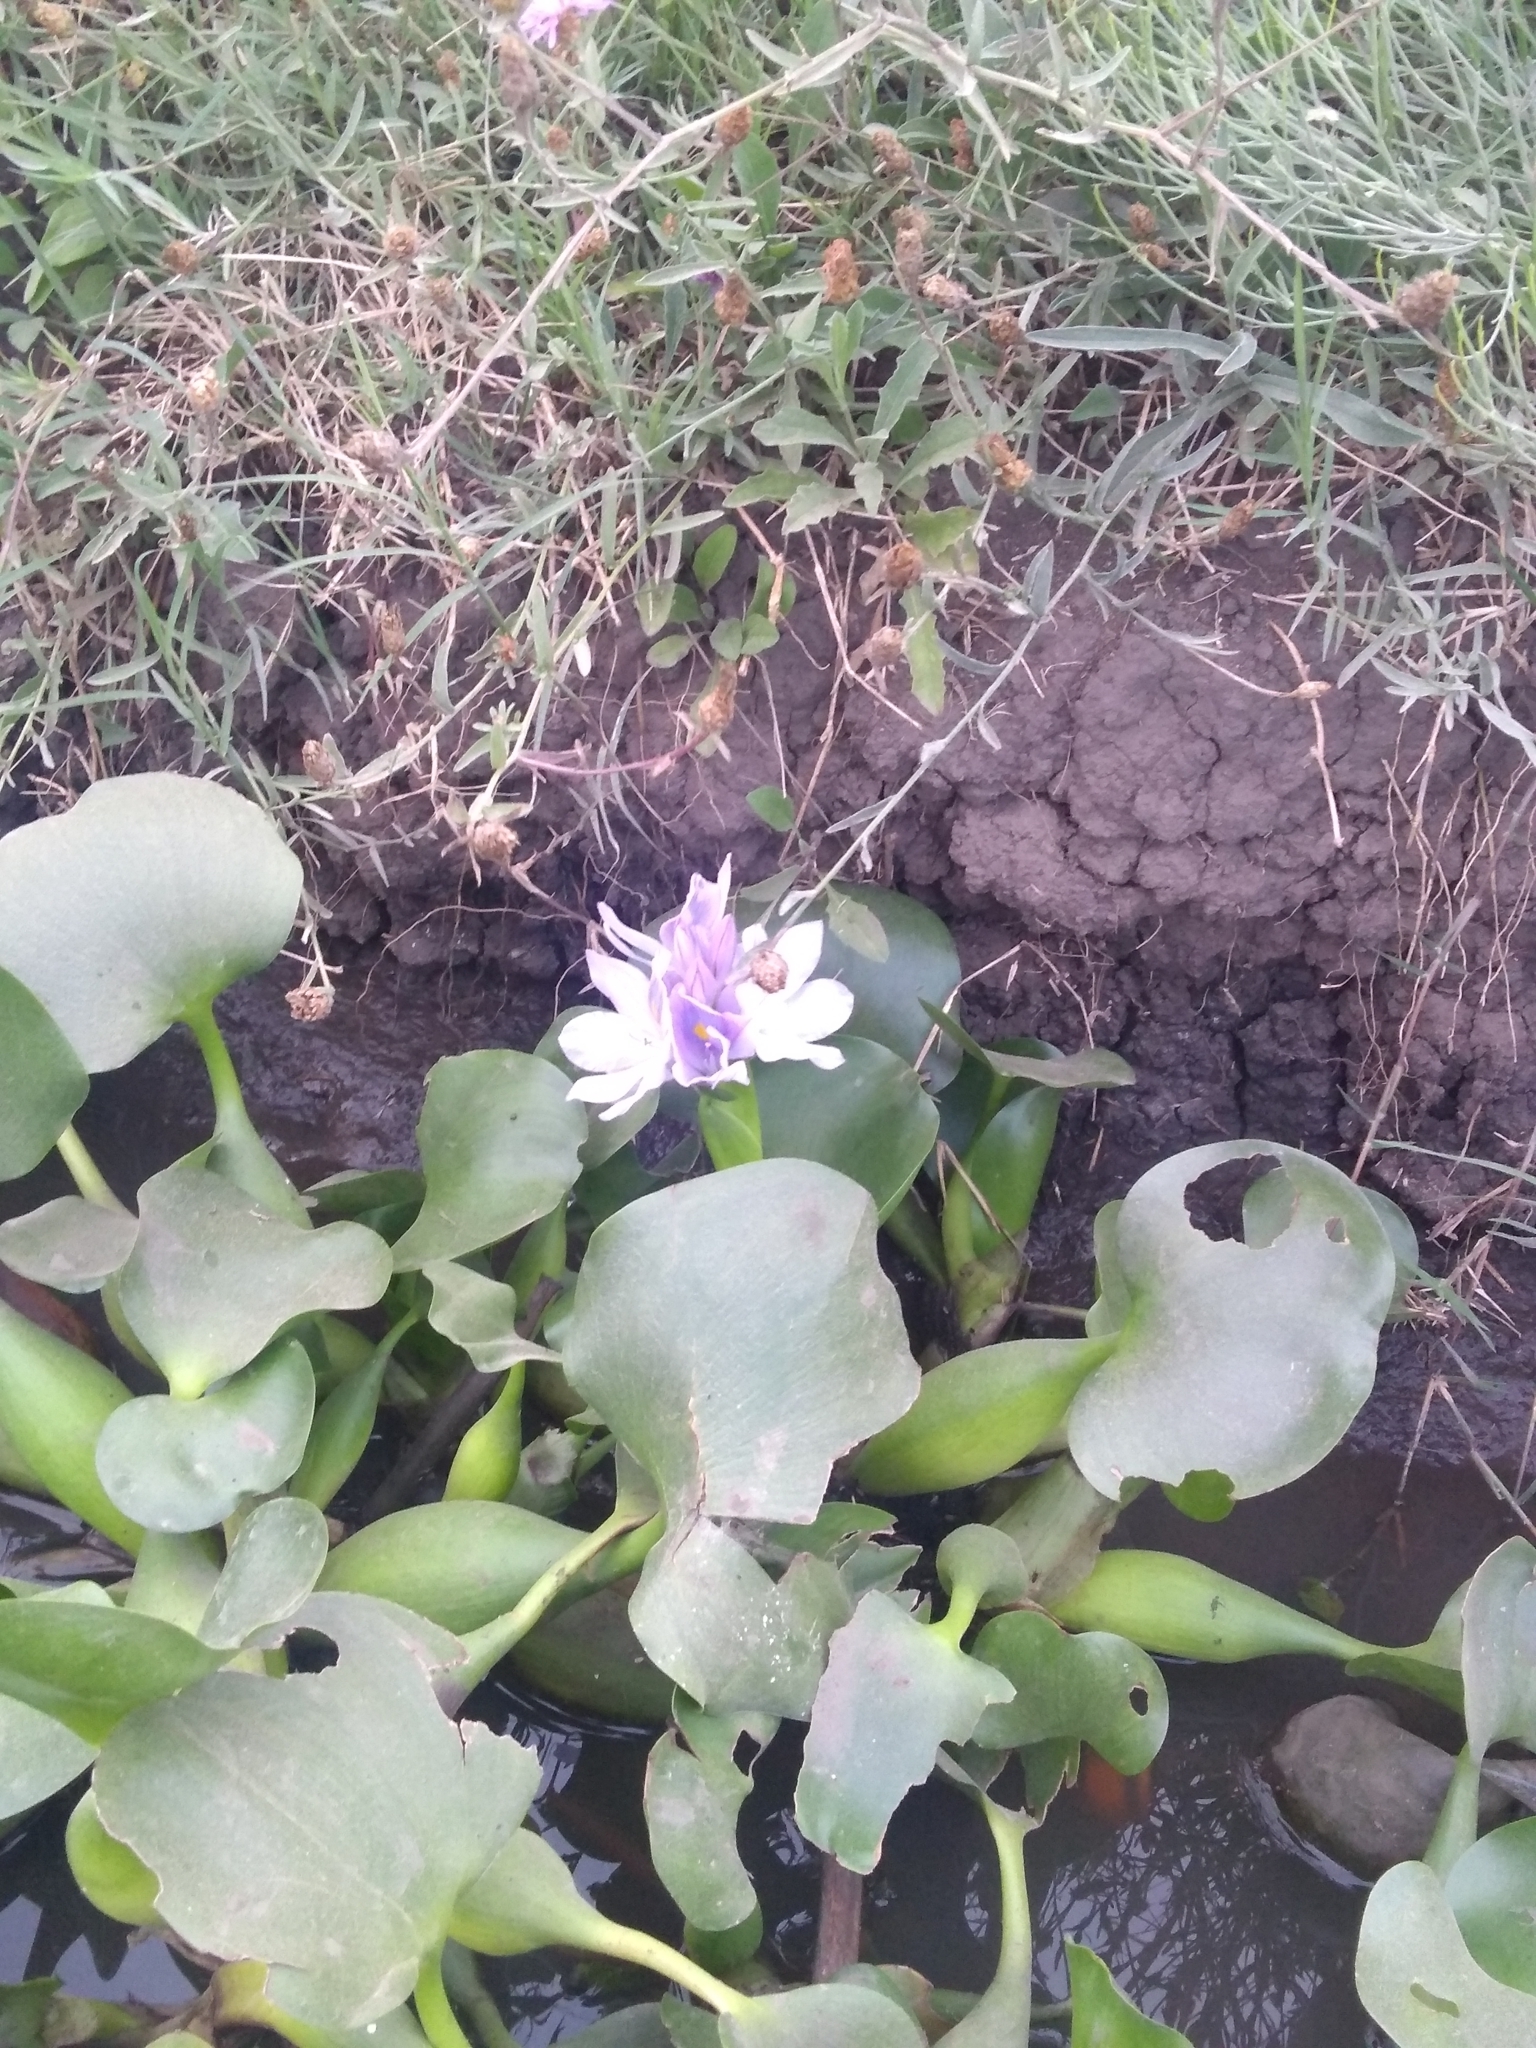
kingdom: Plantae
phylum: Tracheophyta
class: Liliopsida
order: Commelinales
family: Pontederiaceae
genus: Pontederia
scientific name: Pontederia crassipes
